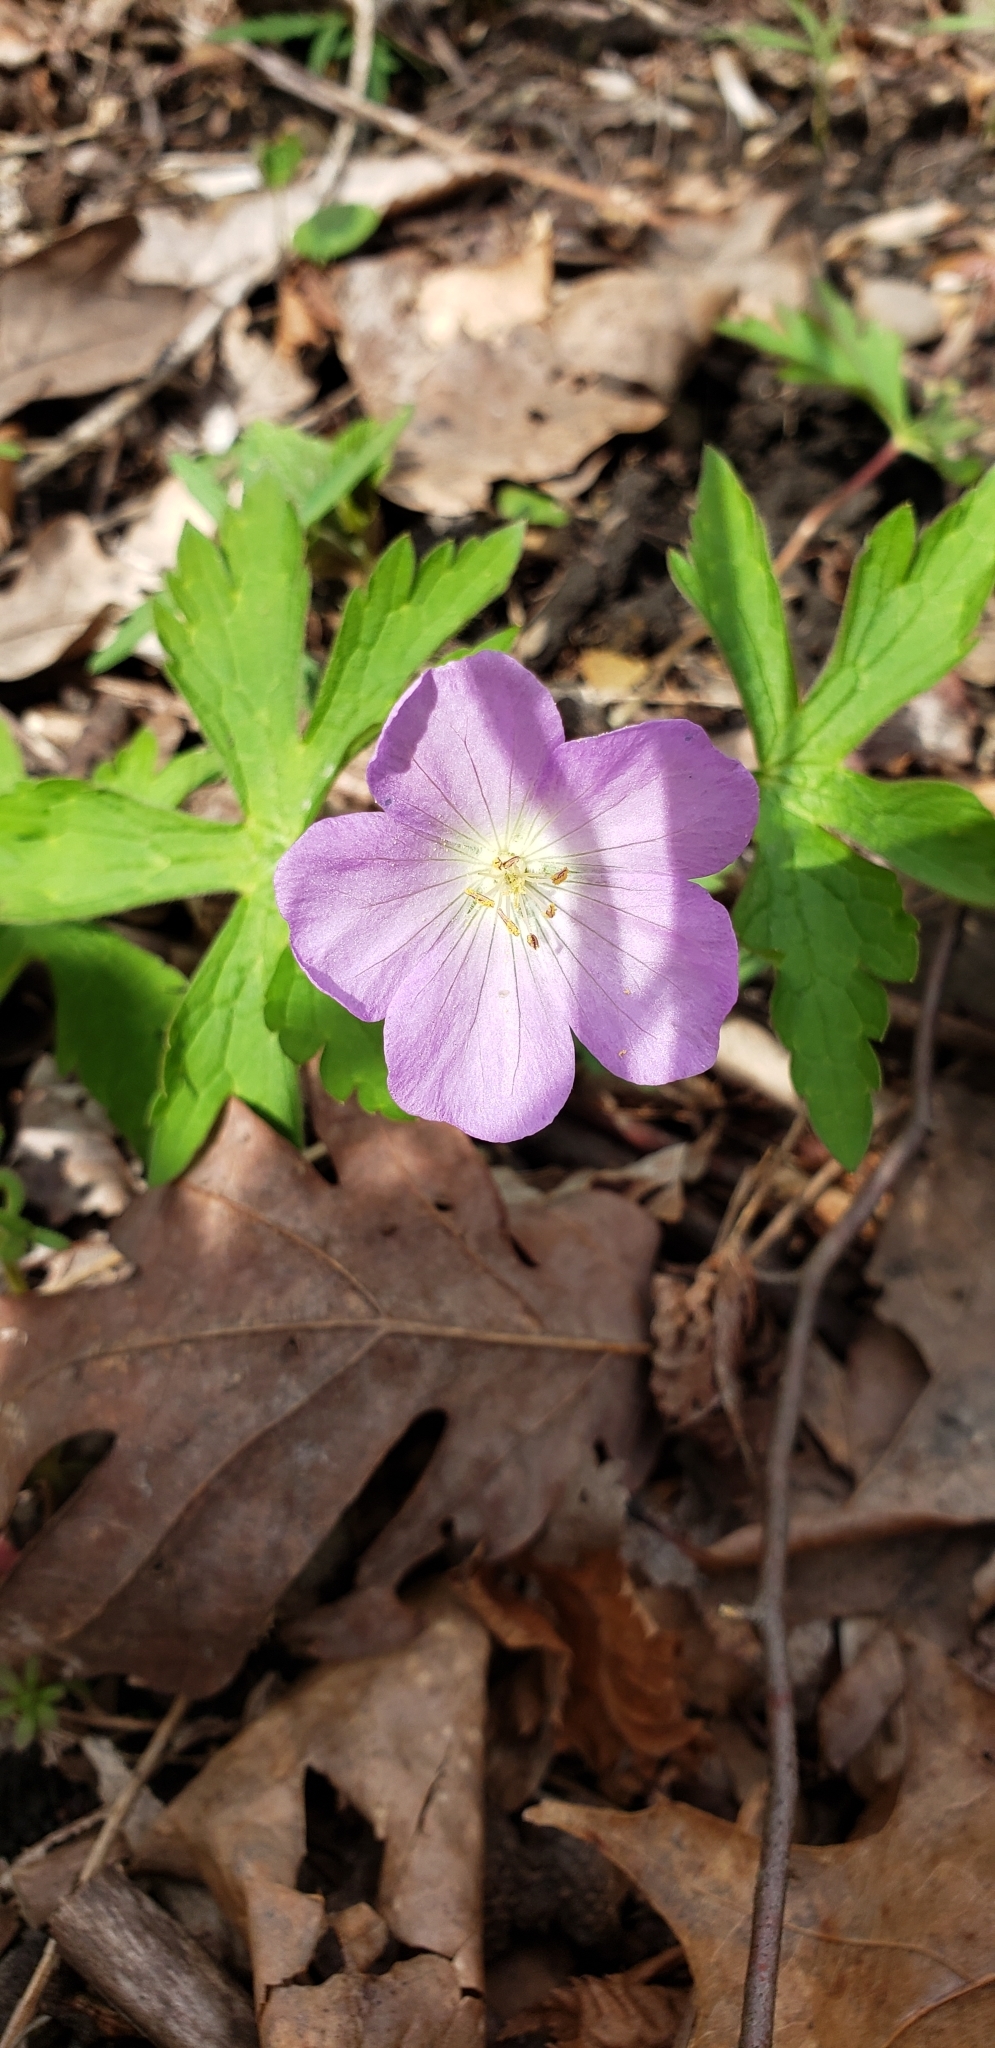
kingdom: Plantae
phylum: Tracheophyta
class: Magnoliopsida
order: Geraniales
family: Geraniaceae
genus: Geranium
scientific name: Geranium maculatum
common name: Spotted geranium
